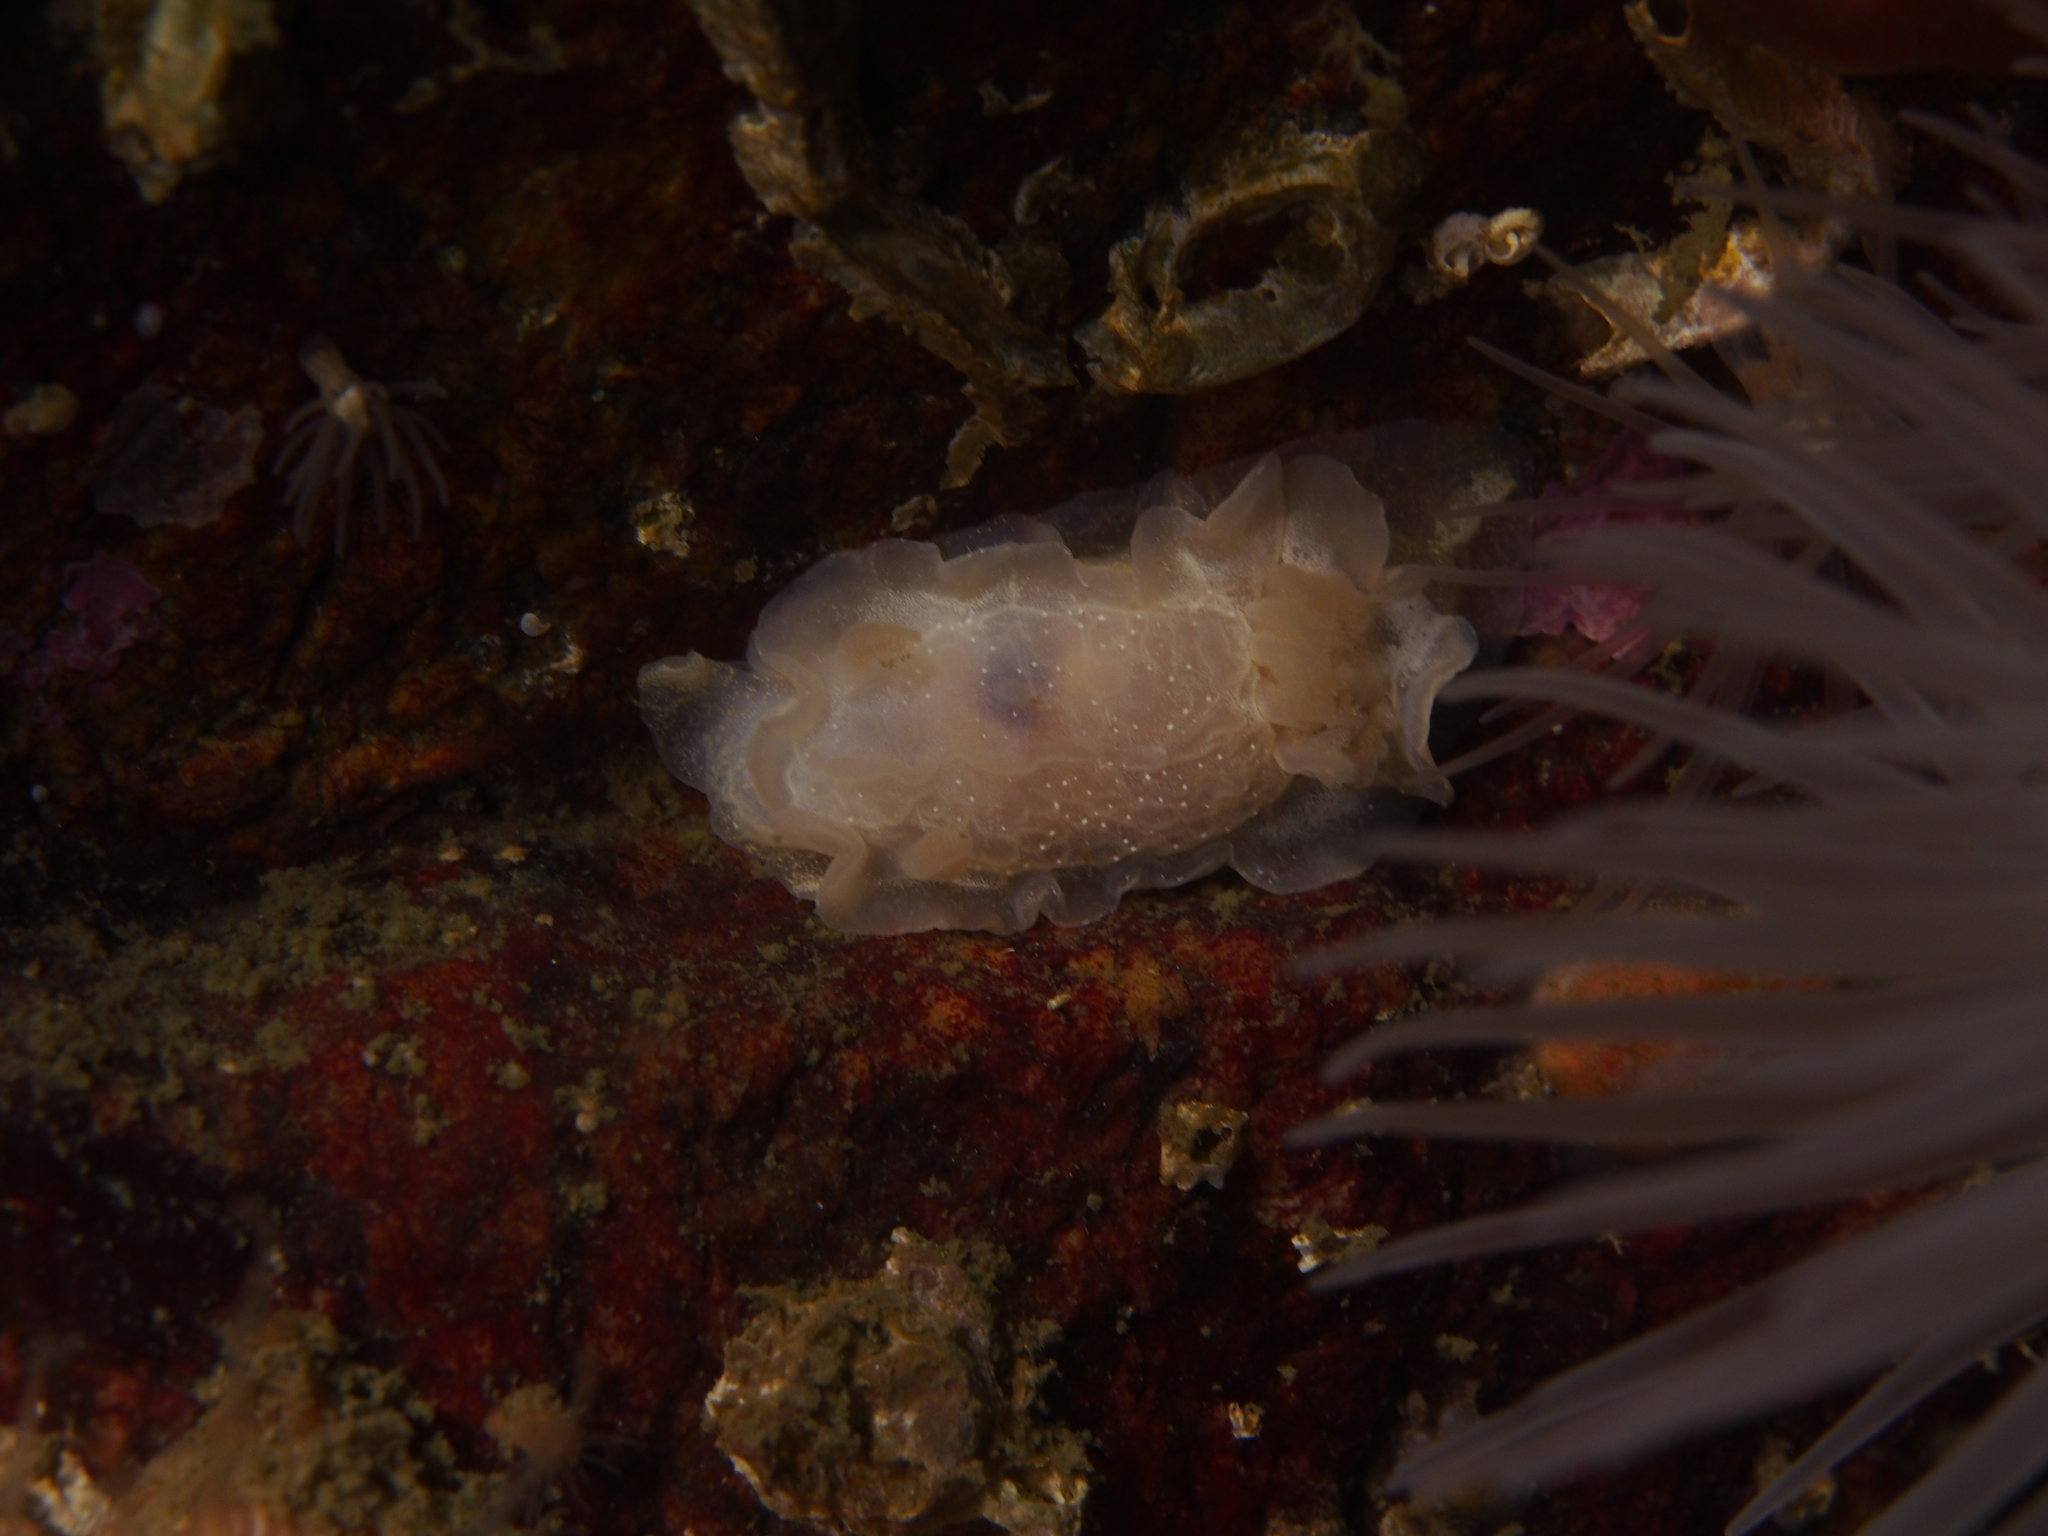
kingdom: Animalia
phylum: Mollusca
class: Gastropoda
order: Nudibranchia
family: Goniodorididae
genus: Okenia
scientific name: Okenia
